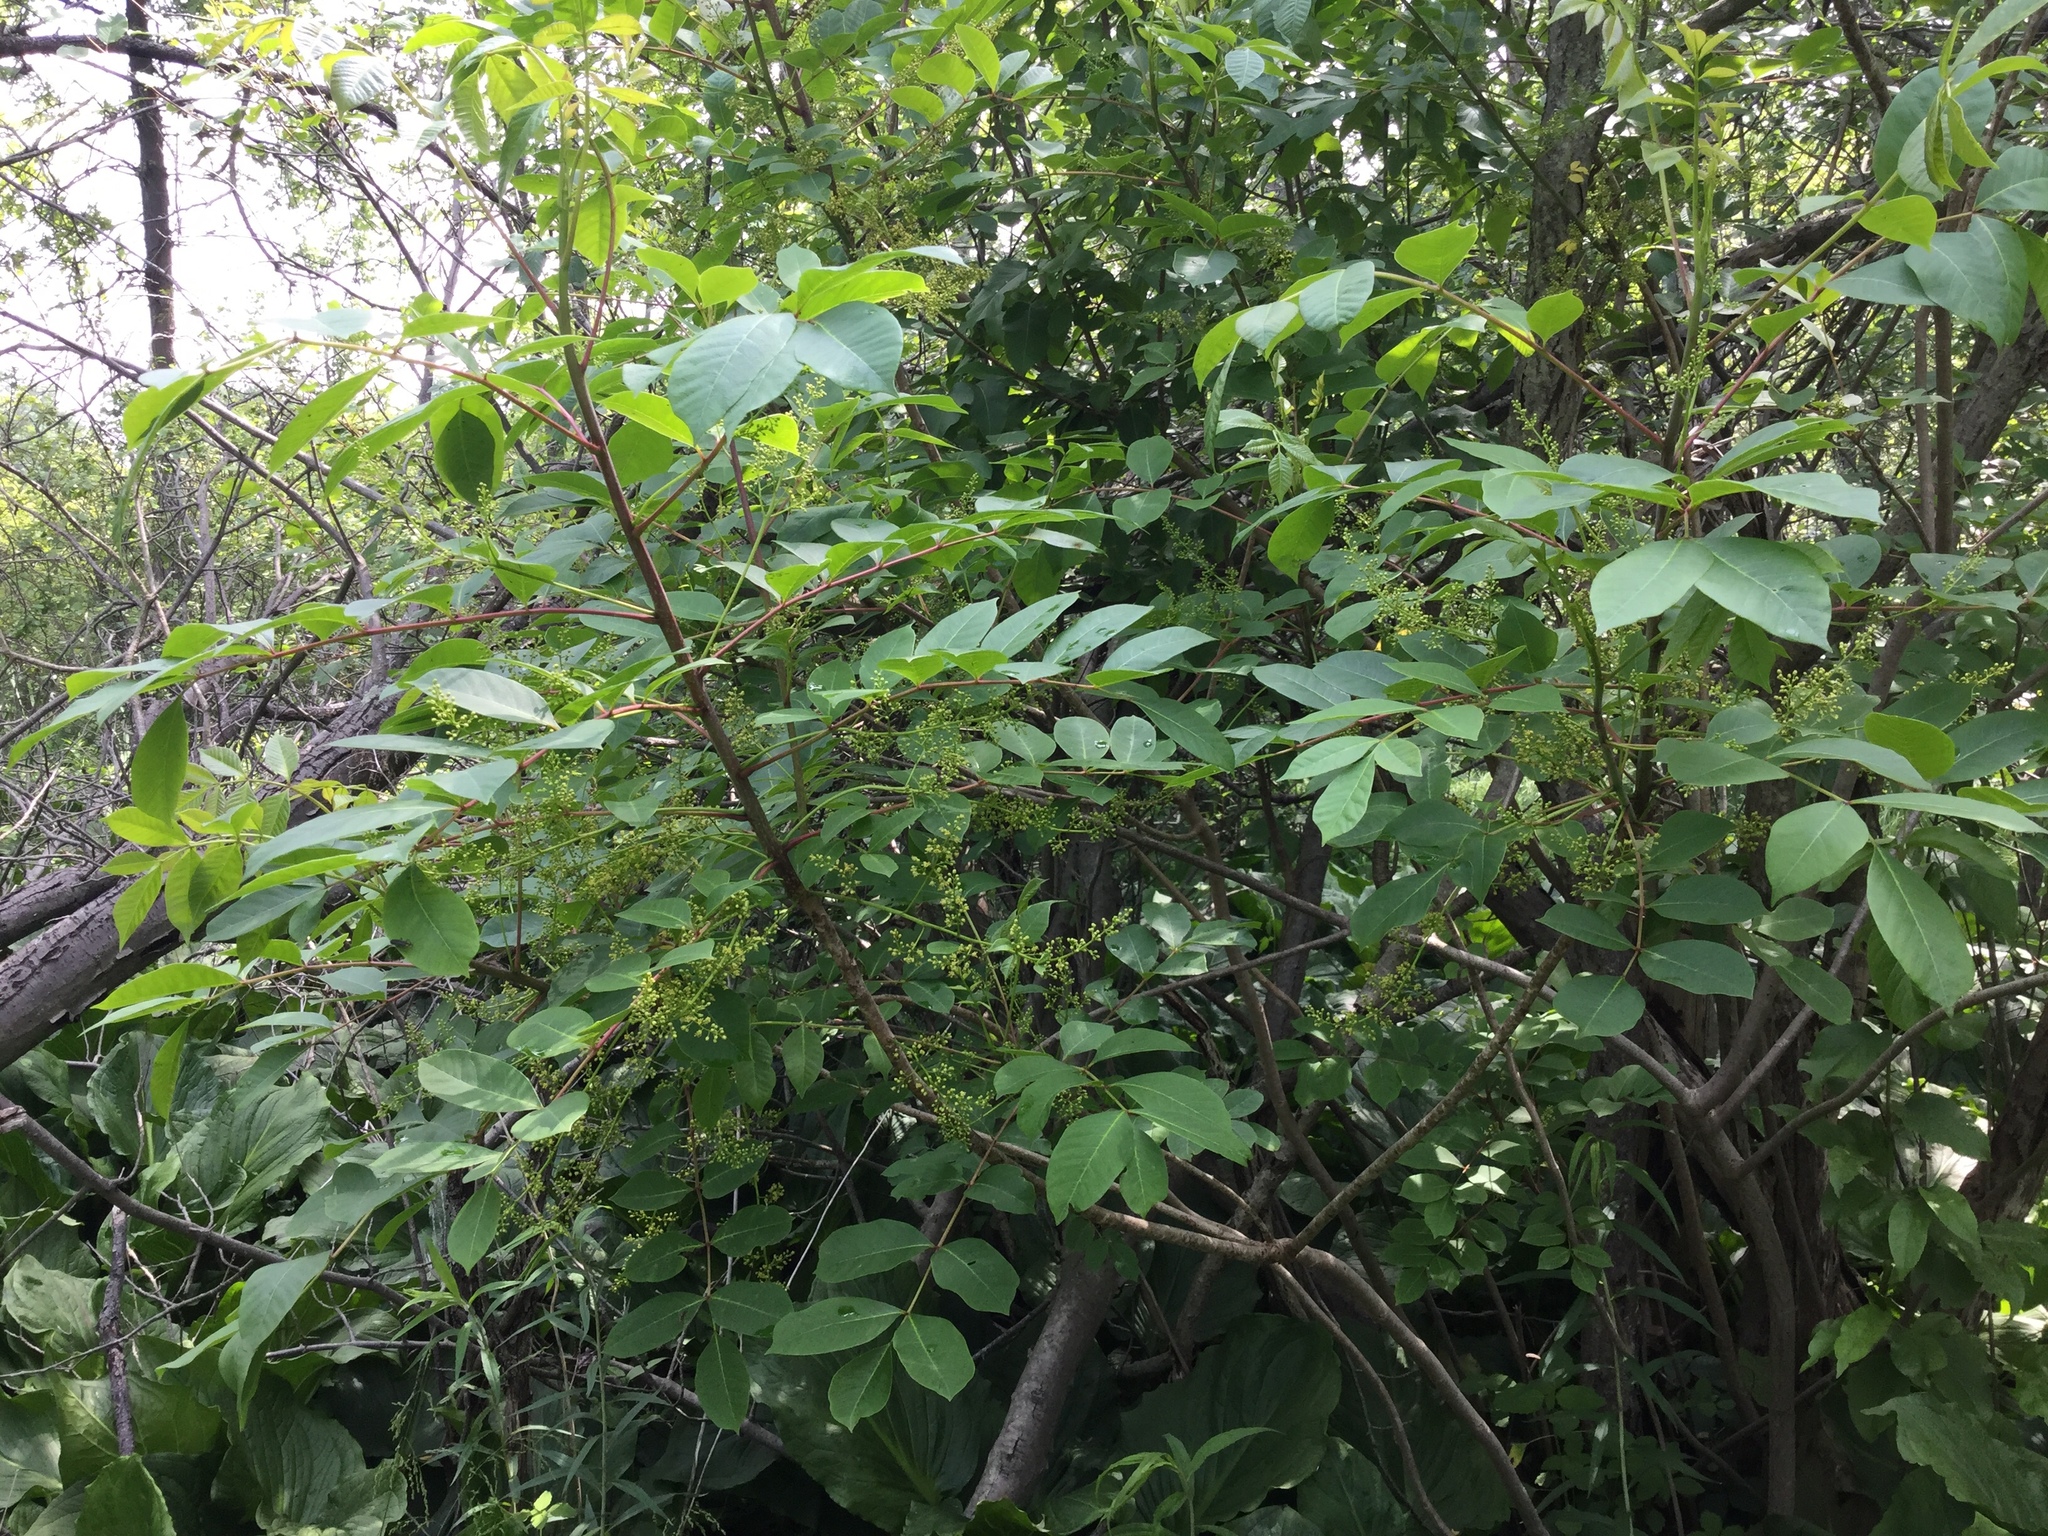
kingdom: Plantae
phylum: Tracheophyta
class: Magnoliopsida
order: Sapindales
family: Anacardiaceae
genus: Toxicodendron
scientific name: Toxicodendron vernix
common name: Poison sumac
